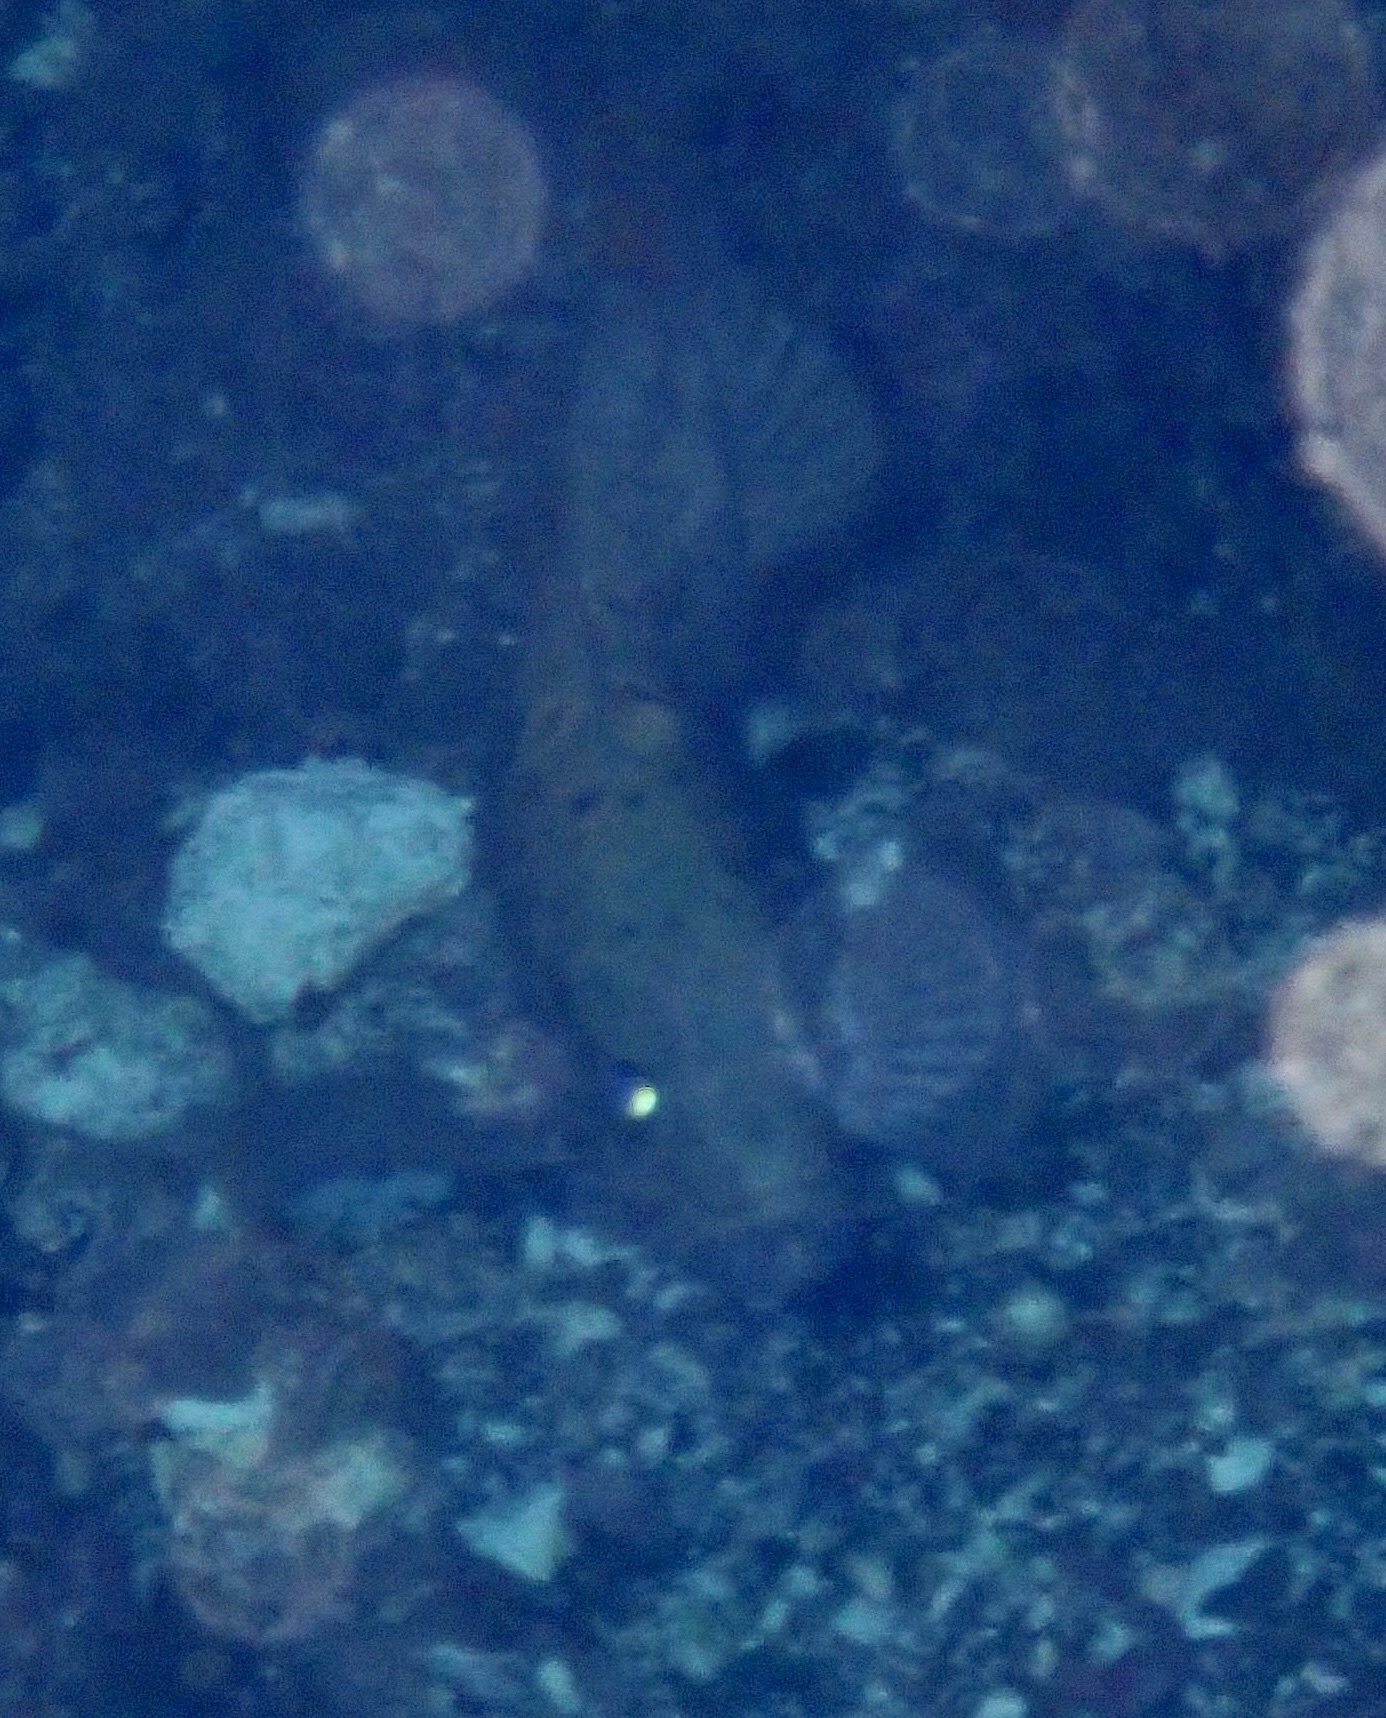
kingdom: Animalia
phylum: Chordata
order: Perciformes
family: Serranidae
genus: Mycteroperca
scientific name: Mycteroperca fusca
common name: Island grouper
